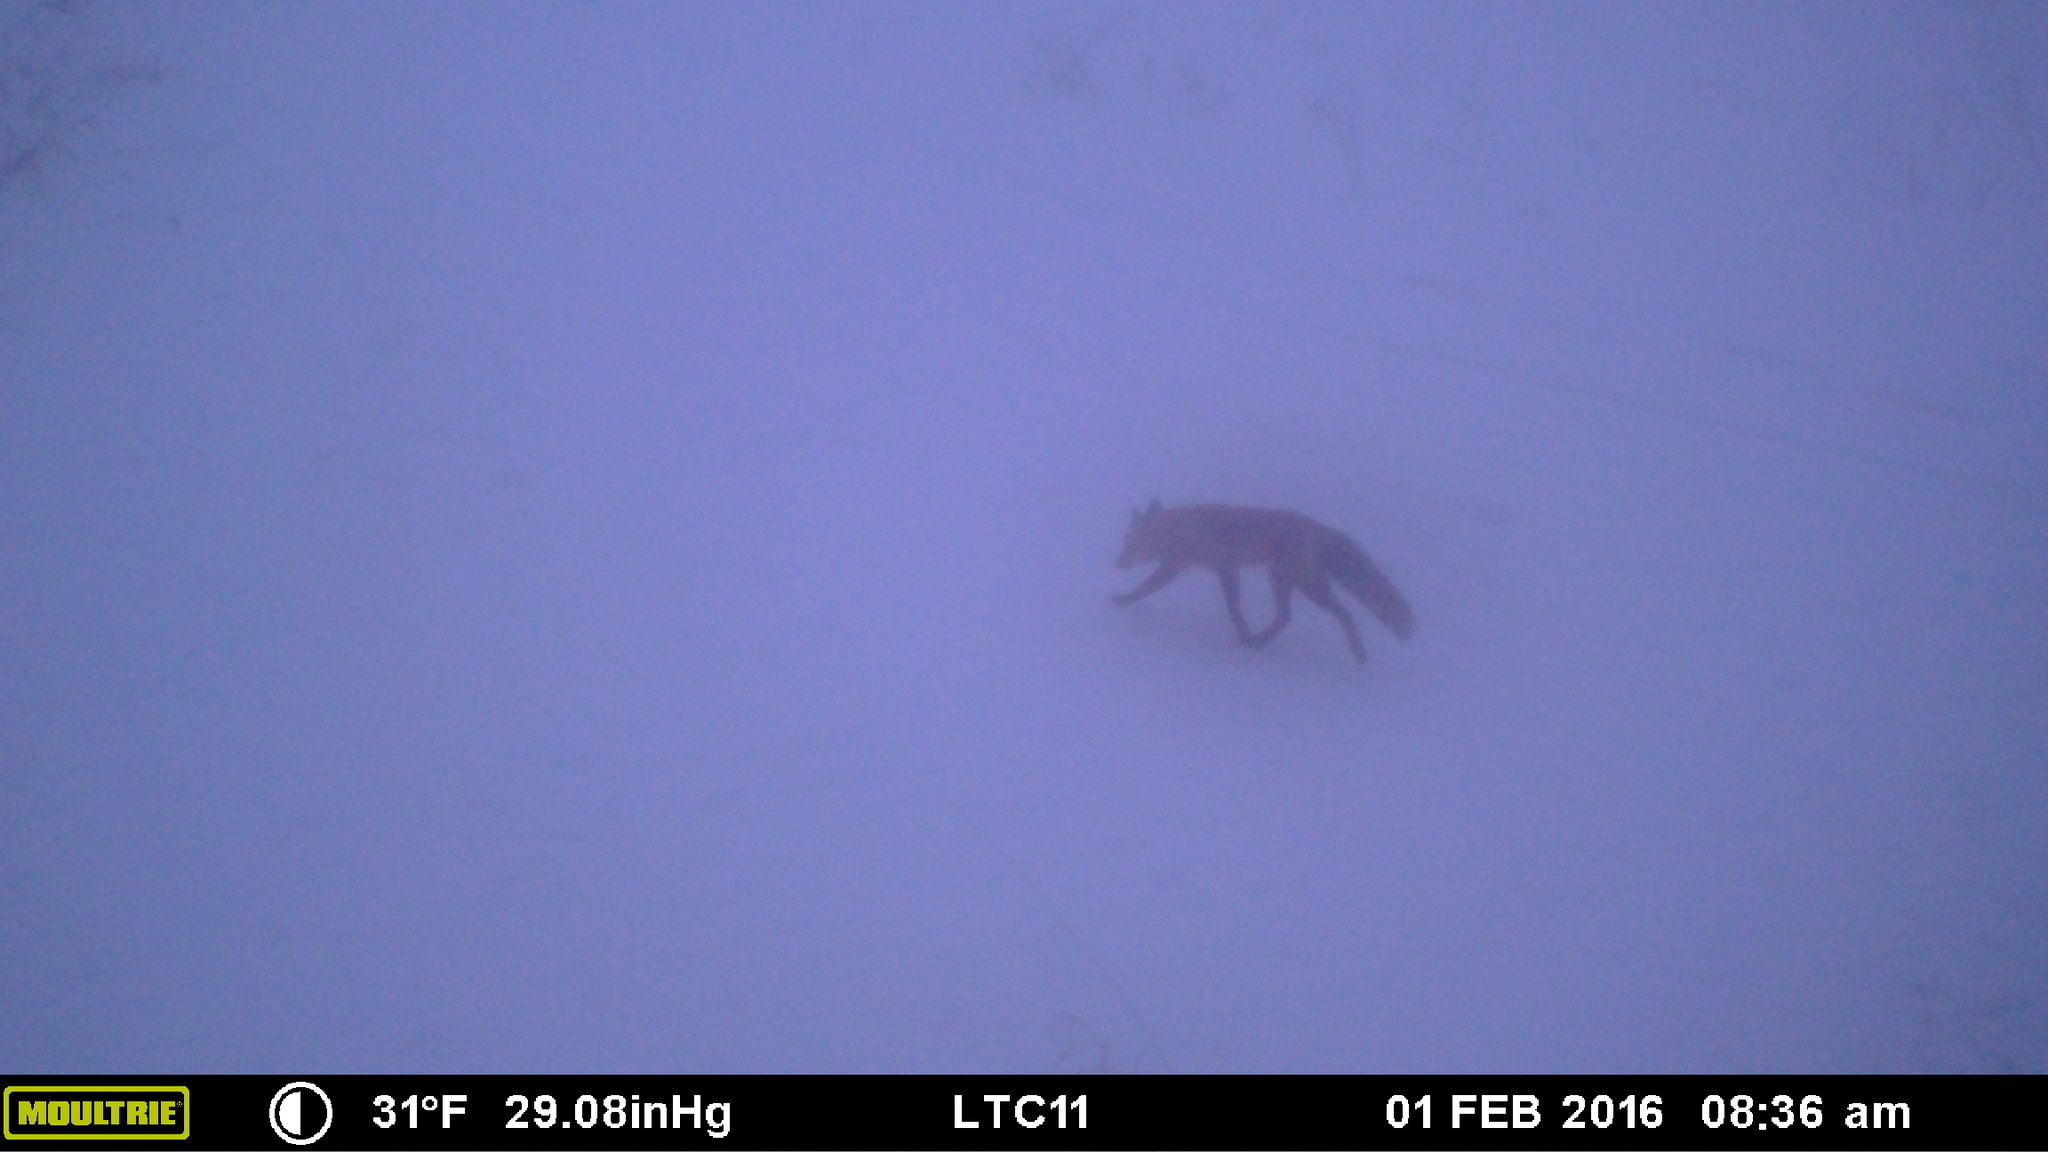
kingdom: Animalia
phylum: Chordata
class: Mammalia
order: Carnivora
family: Canidae
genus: Vulpes
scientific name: Vulpes vulpes
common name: Red fox
